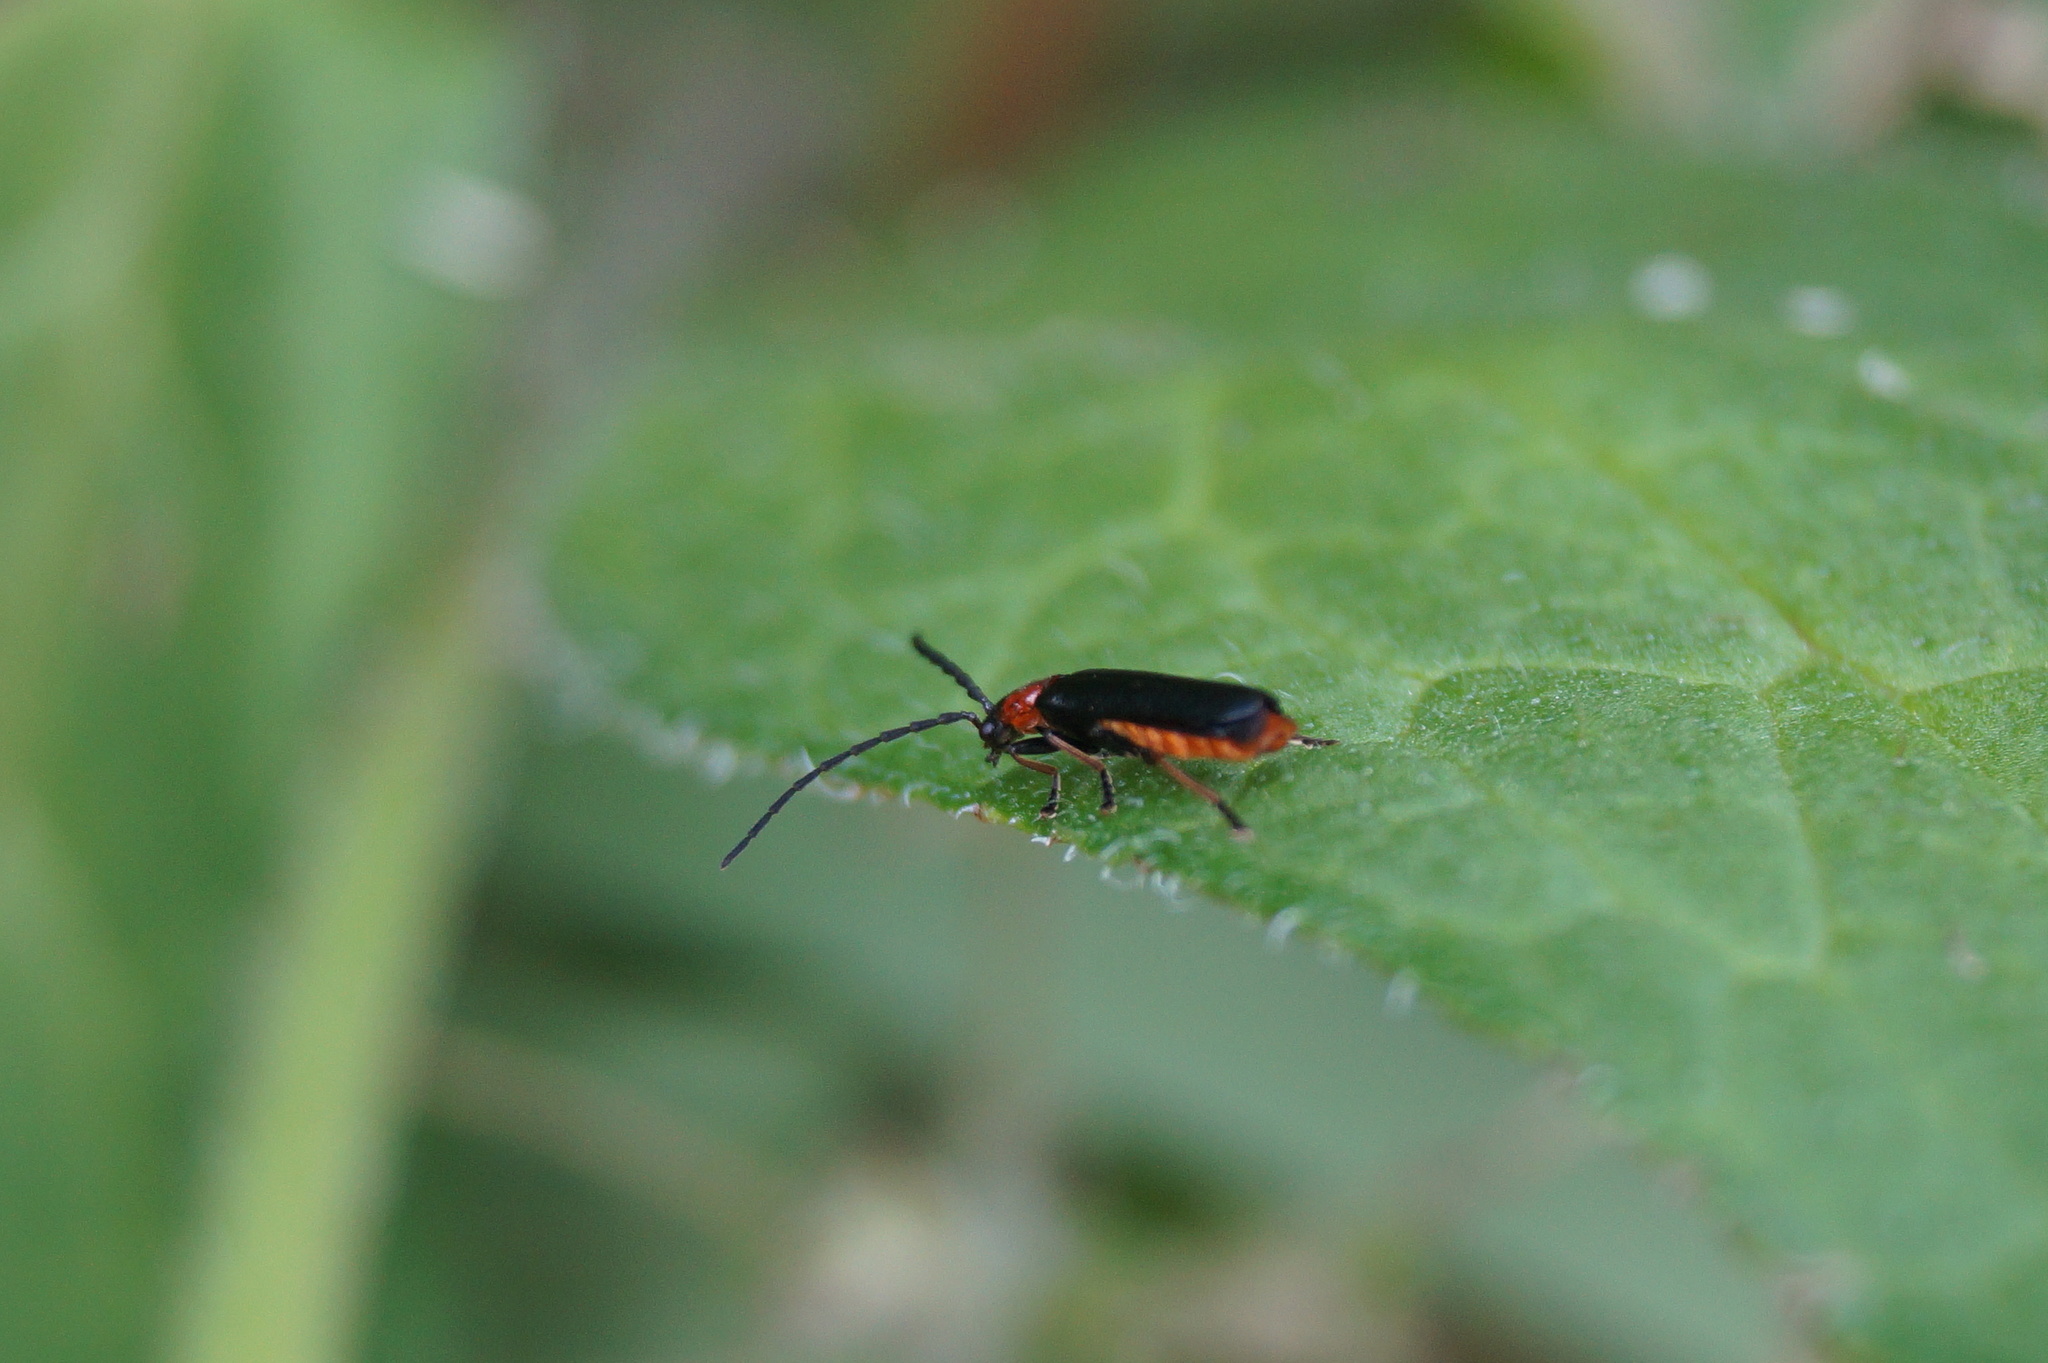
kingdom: Animalia
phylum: Arthropoda
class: Insecta
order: Coleoptera
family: Cantharidae
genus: Crudosilis
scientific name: Crudosilis ruficollis
